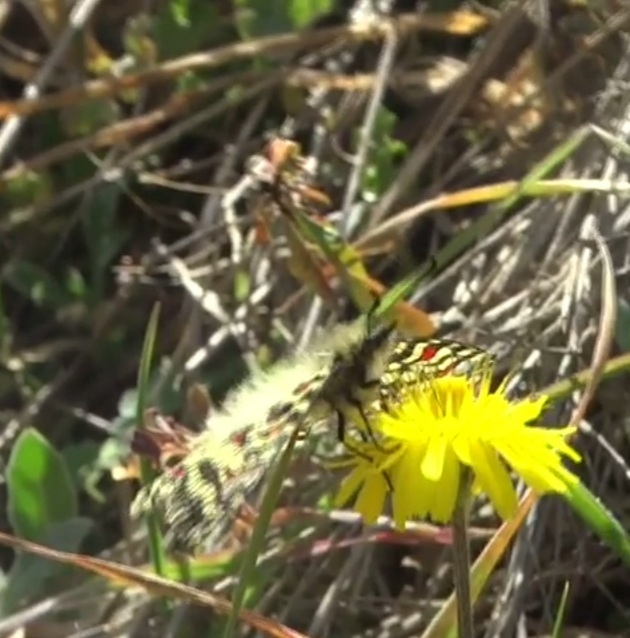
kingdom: Animalia
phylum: Arthropoda
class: Insecta
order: Lepidoptera
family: Papilionidae
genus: Zerynthia
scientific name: Zerynthia rumina
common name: Spanish festoon
